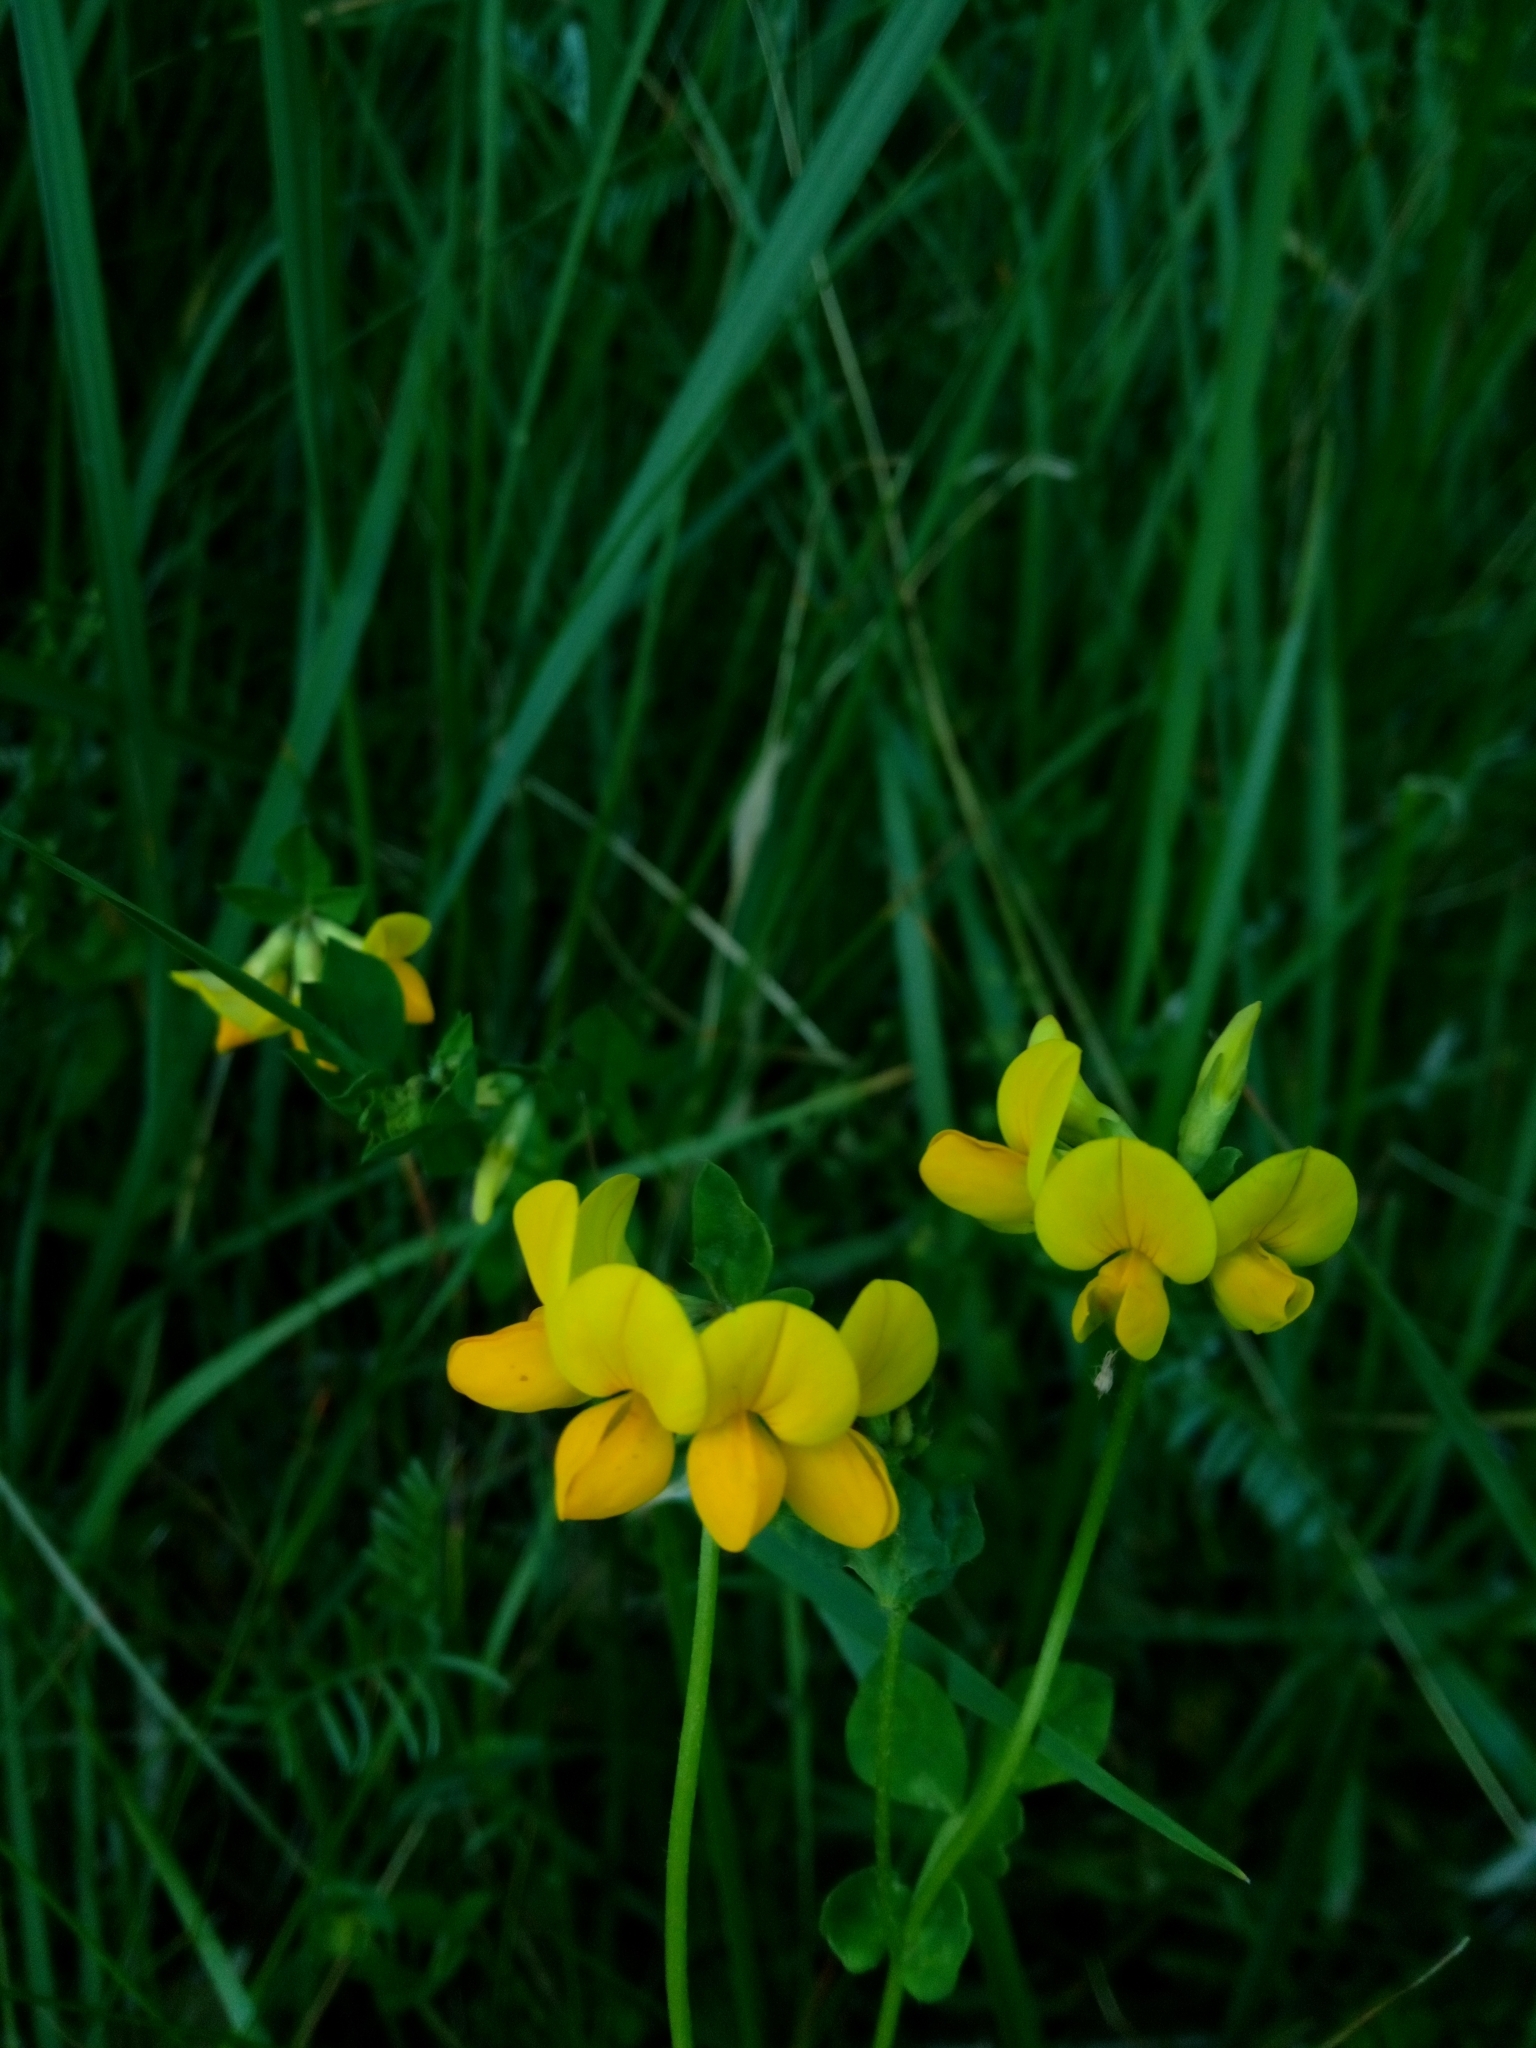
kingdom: Plantae
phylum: Tracheophyta
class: Magnoliopsida
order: Fabales
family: Fabaceae
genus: Lotus
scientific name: Lotus corniculatus
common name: Common bird's-foot-trefoil
